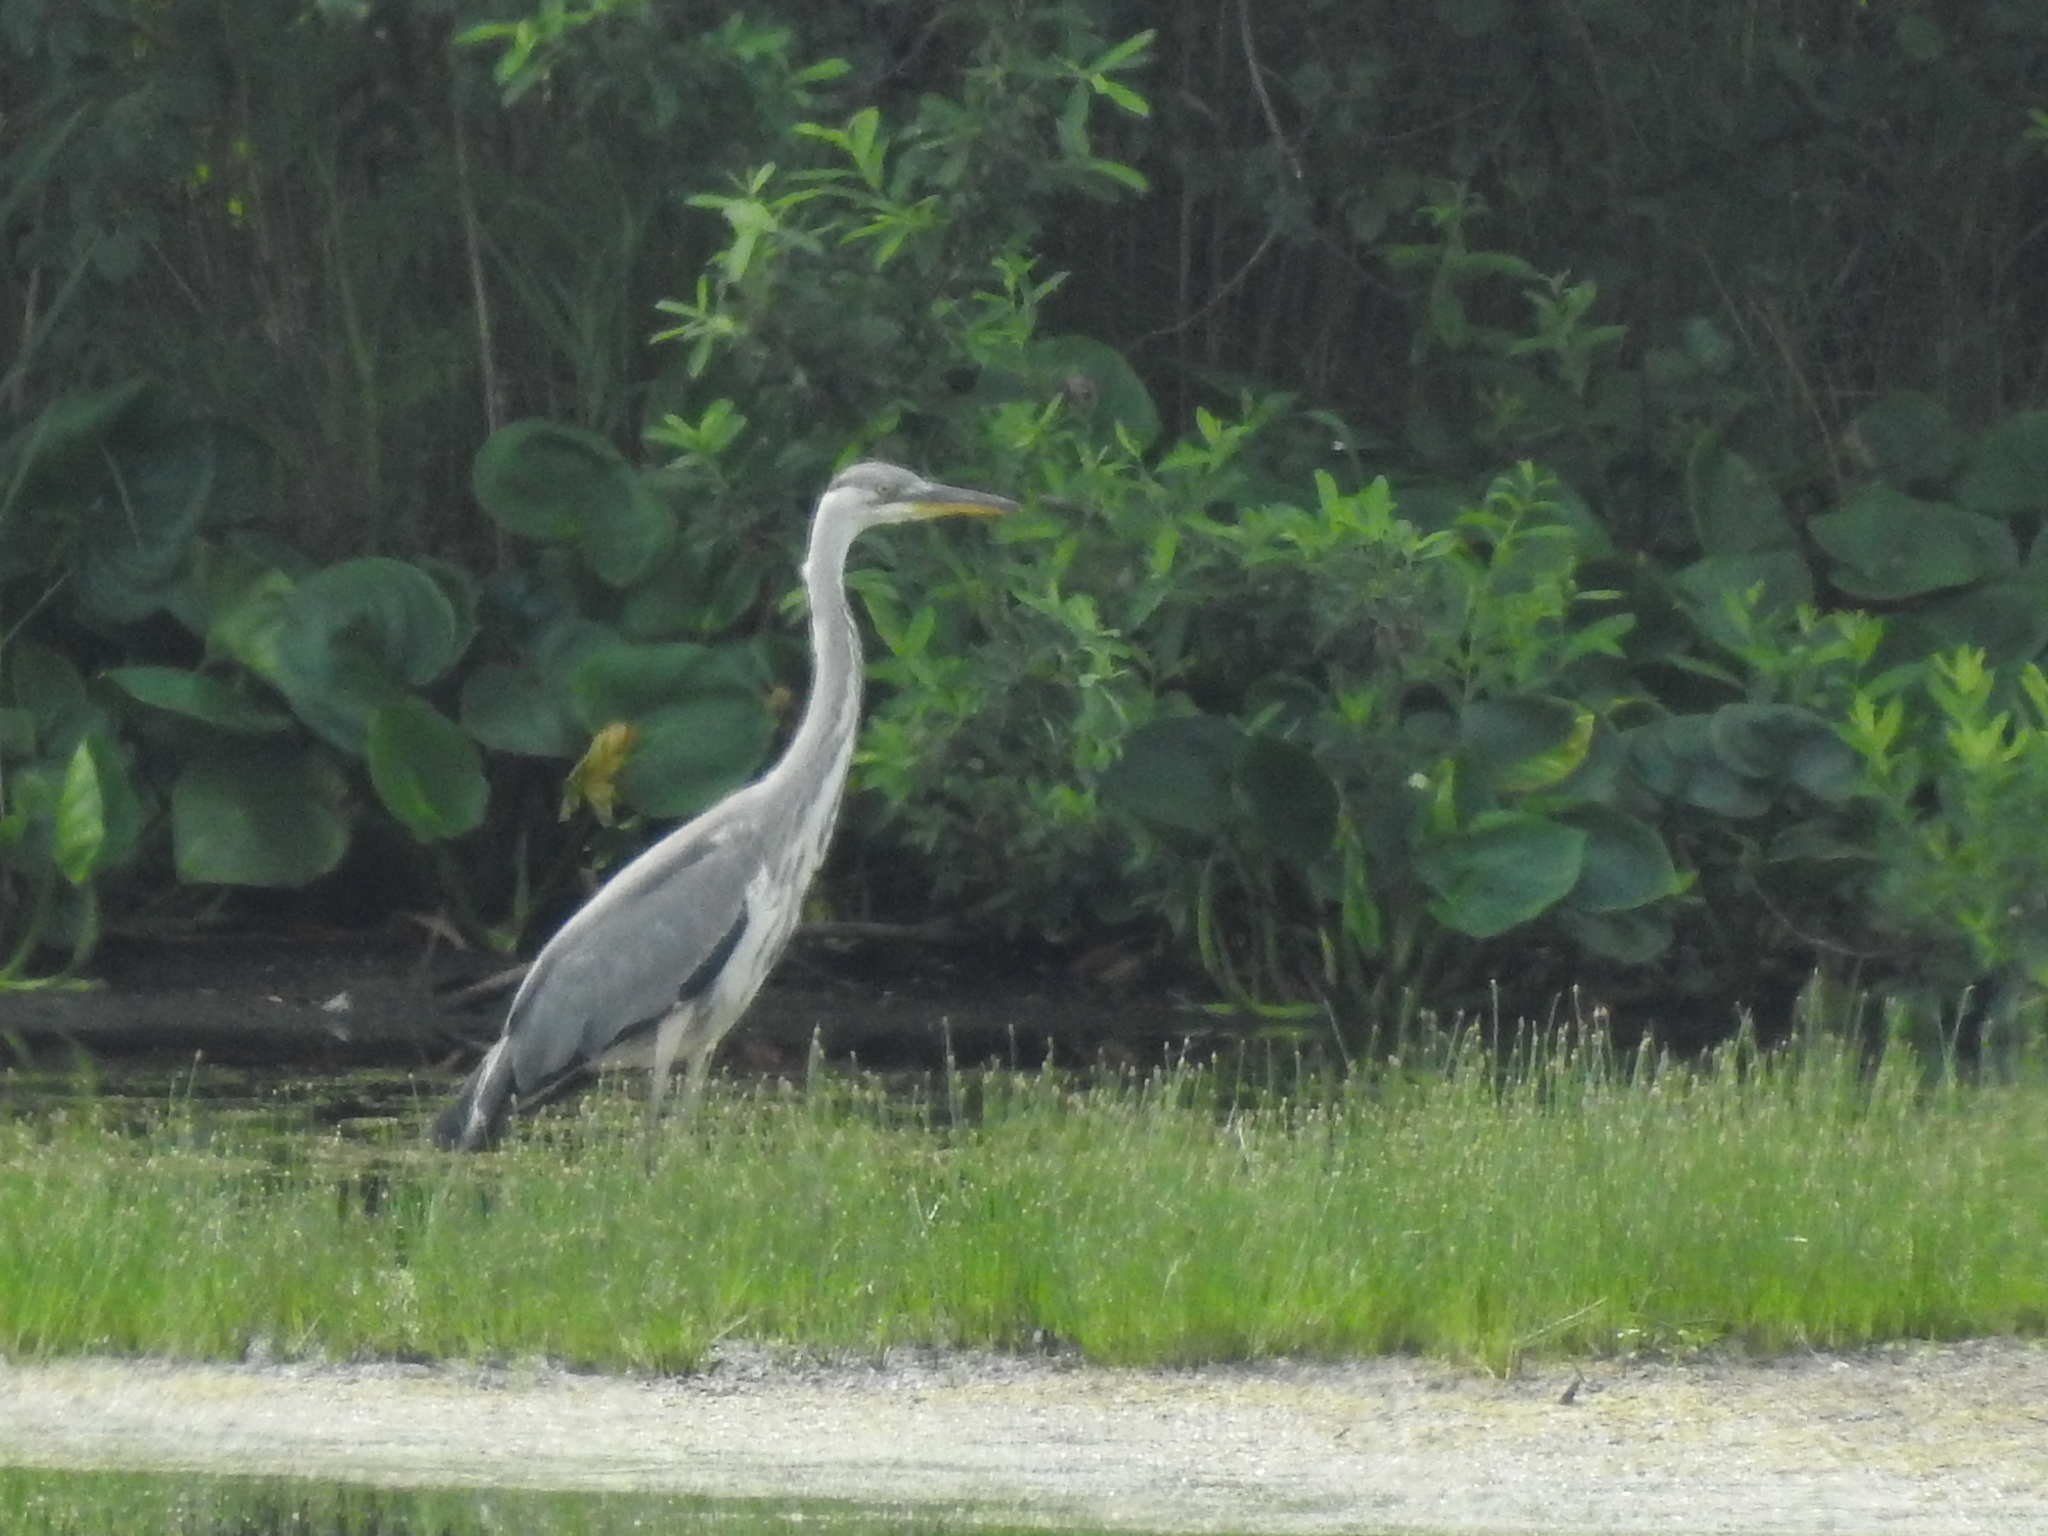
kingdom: Animalia
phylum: Chordata
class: Aves
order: Pelecaniformes
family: Ardeidae
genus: Ardea
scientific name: Ardea cinerea
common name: Grey heron
